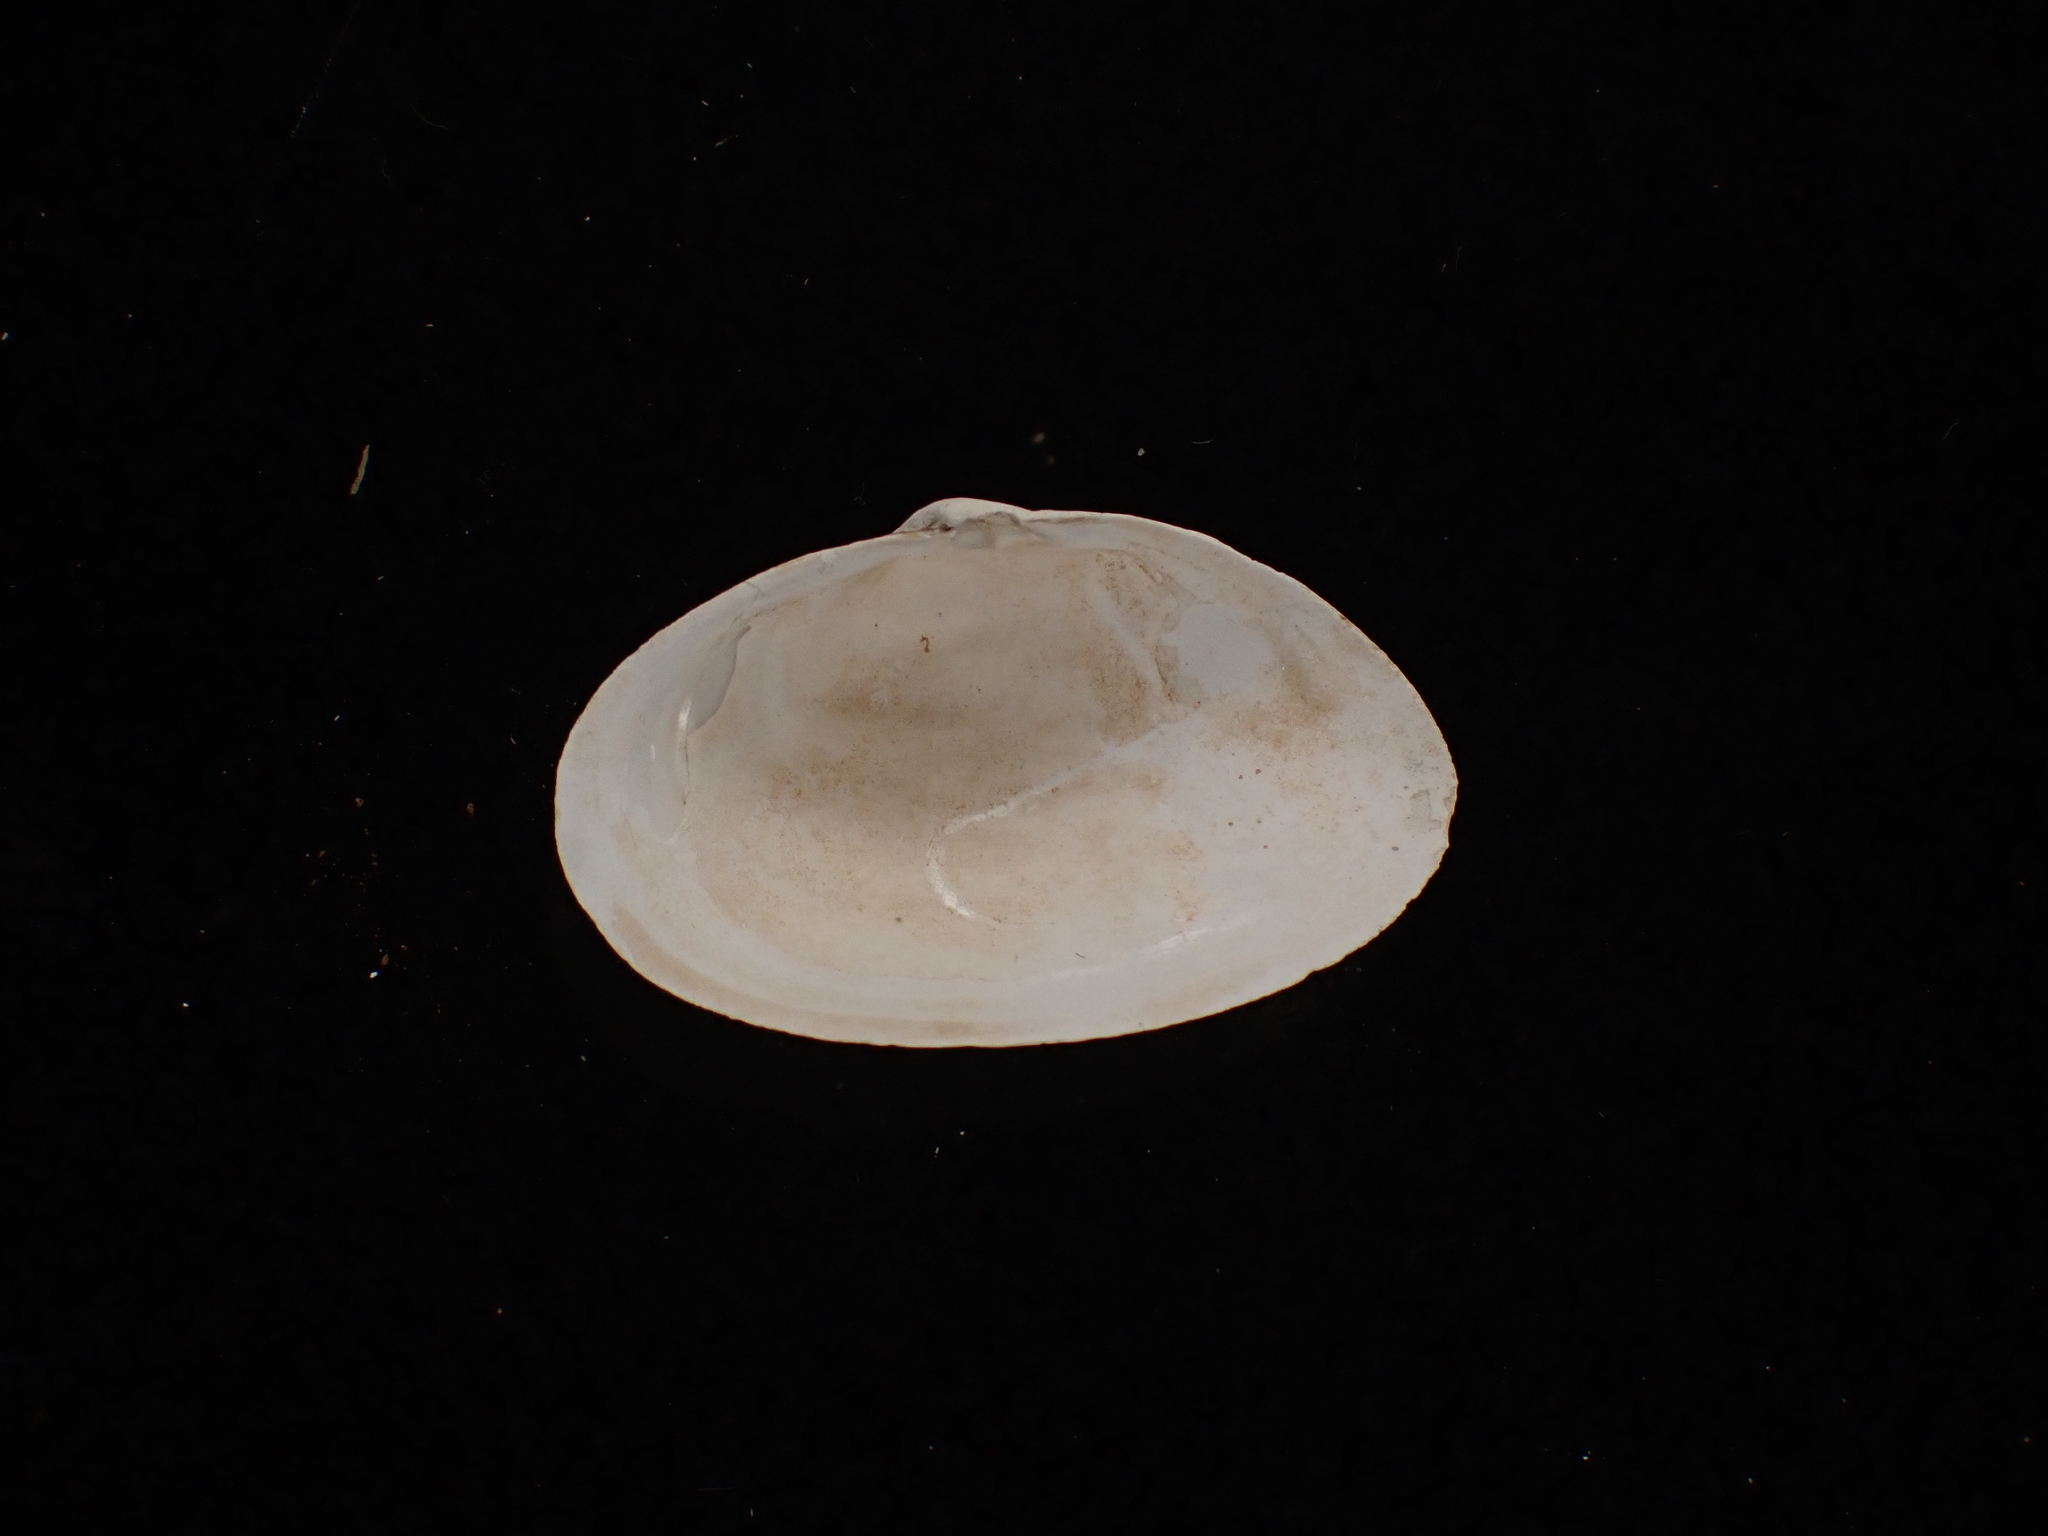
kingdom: Animalia
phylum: Mollusca
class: Bivalvia
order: Myida
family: Myidae
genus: Mya
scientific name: Mya arenaria
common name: Soft-shelled clam
